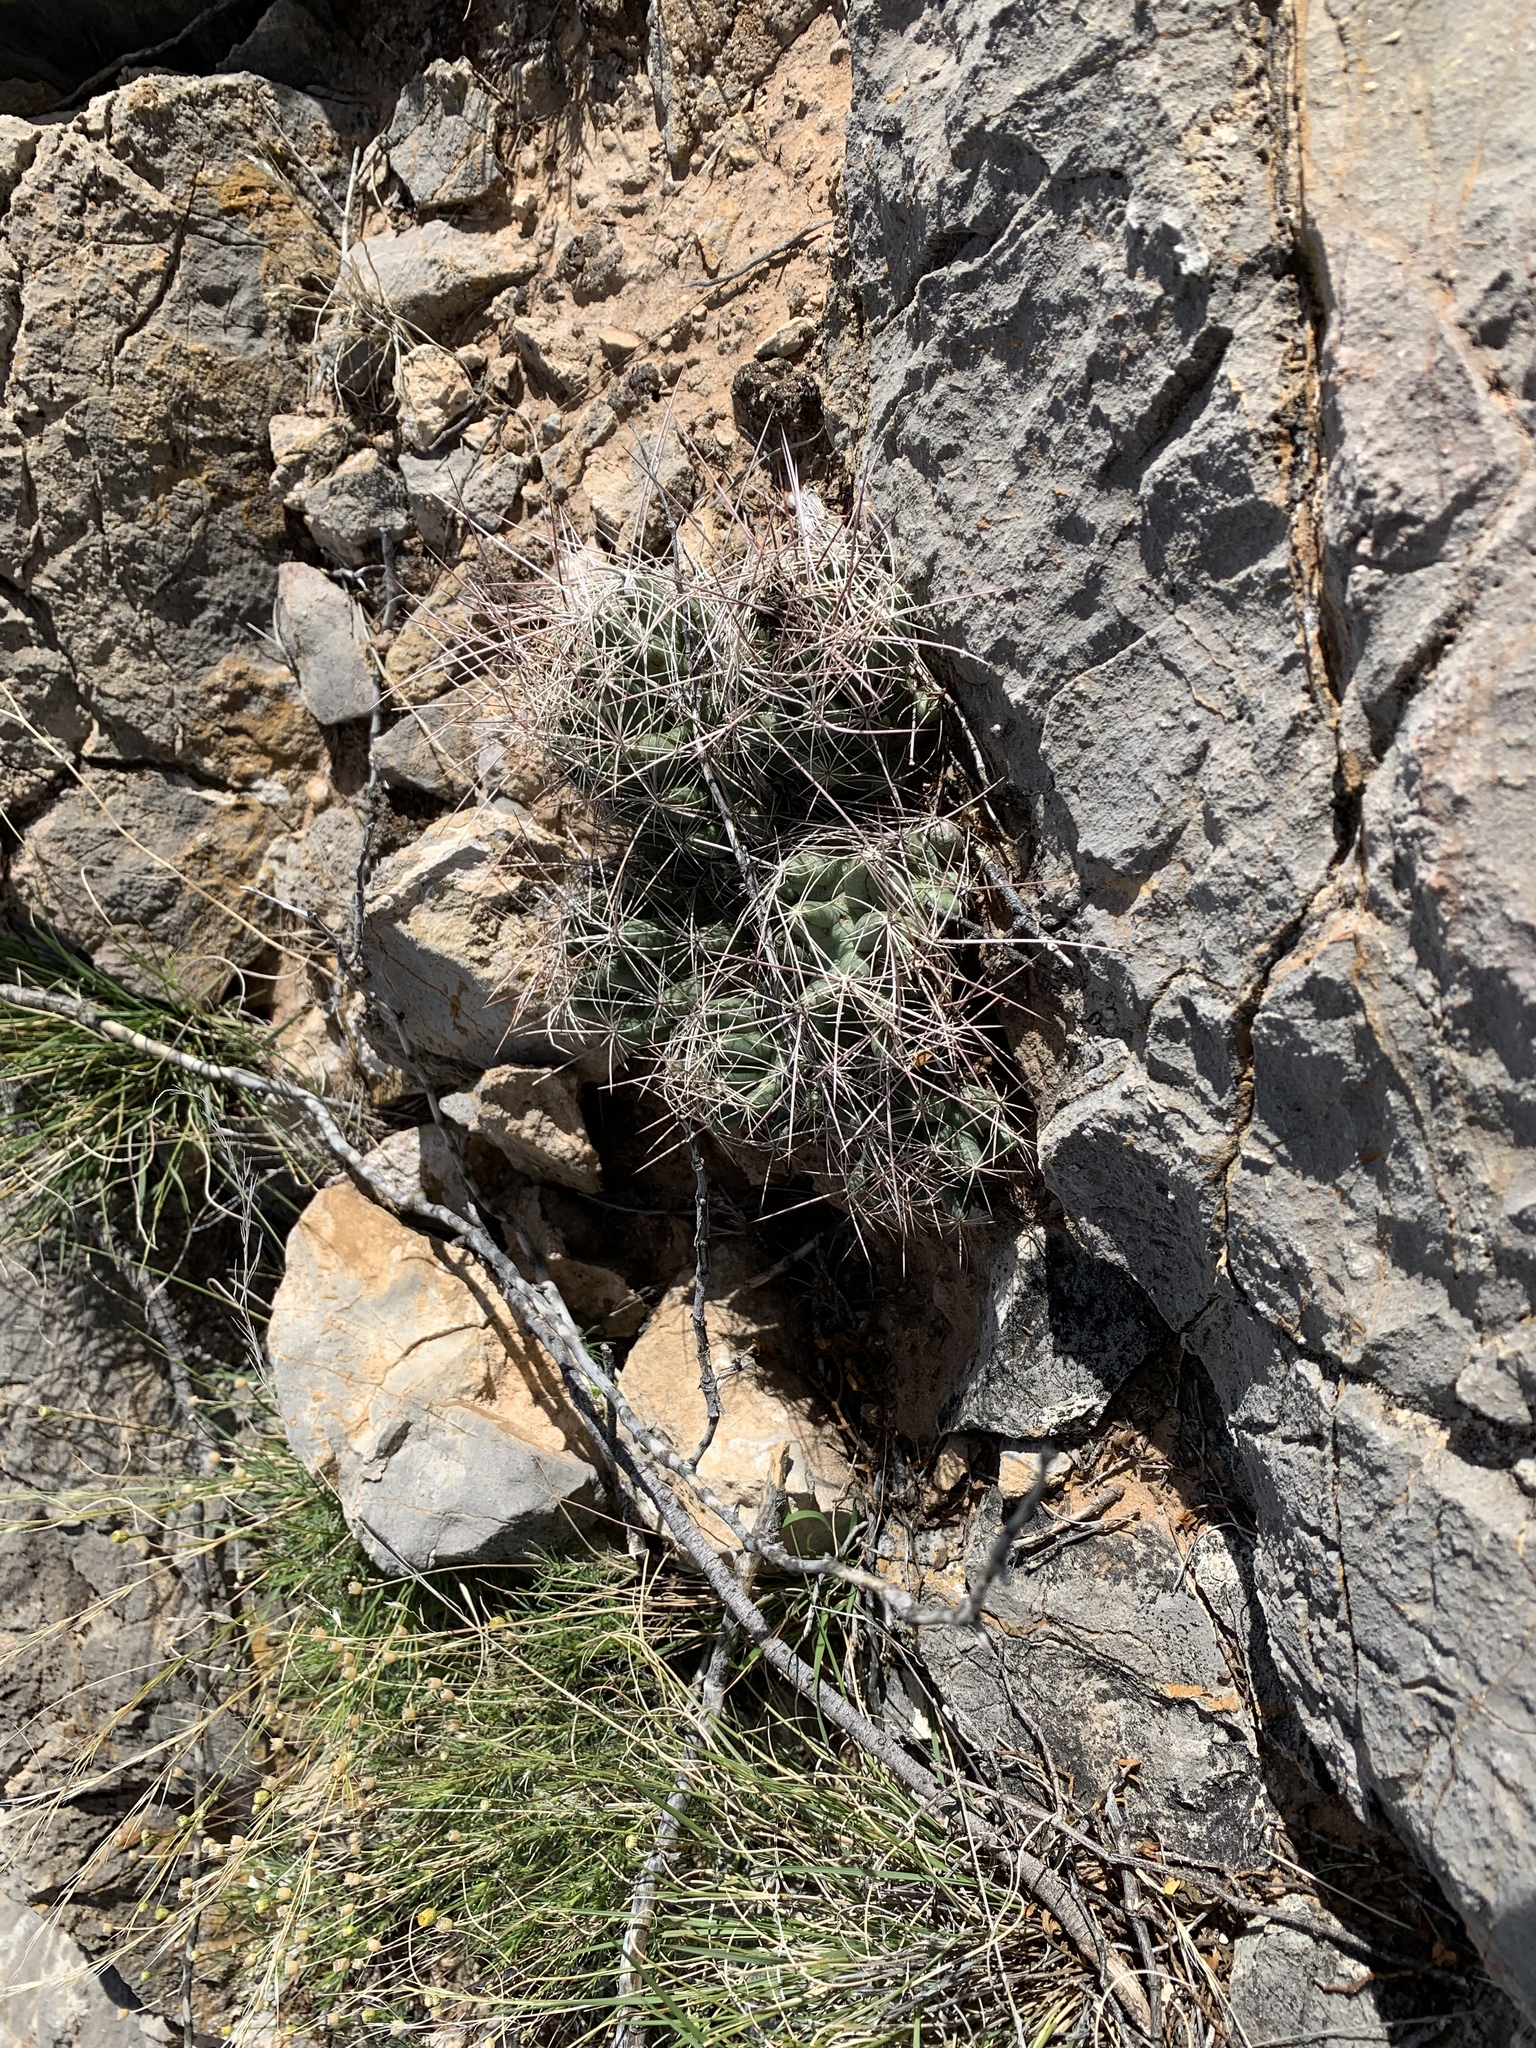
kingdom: Plantae
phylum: Tracheophyta
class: Magnoliopsida
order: Caryophyllales
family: Cactaceae
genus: Coryphantha
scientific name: Coryphantha macromeris
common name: Nipple beehive cactus
